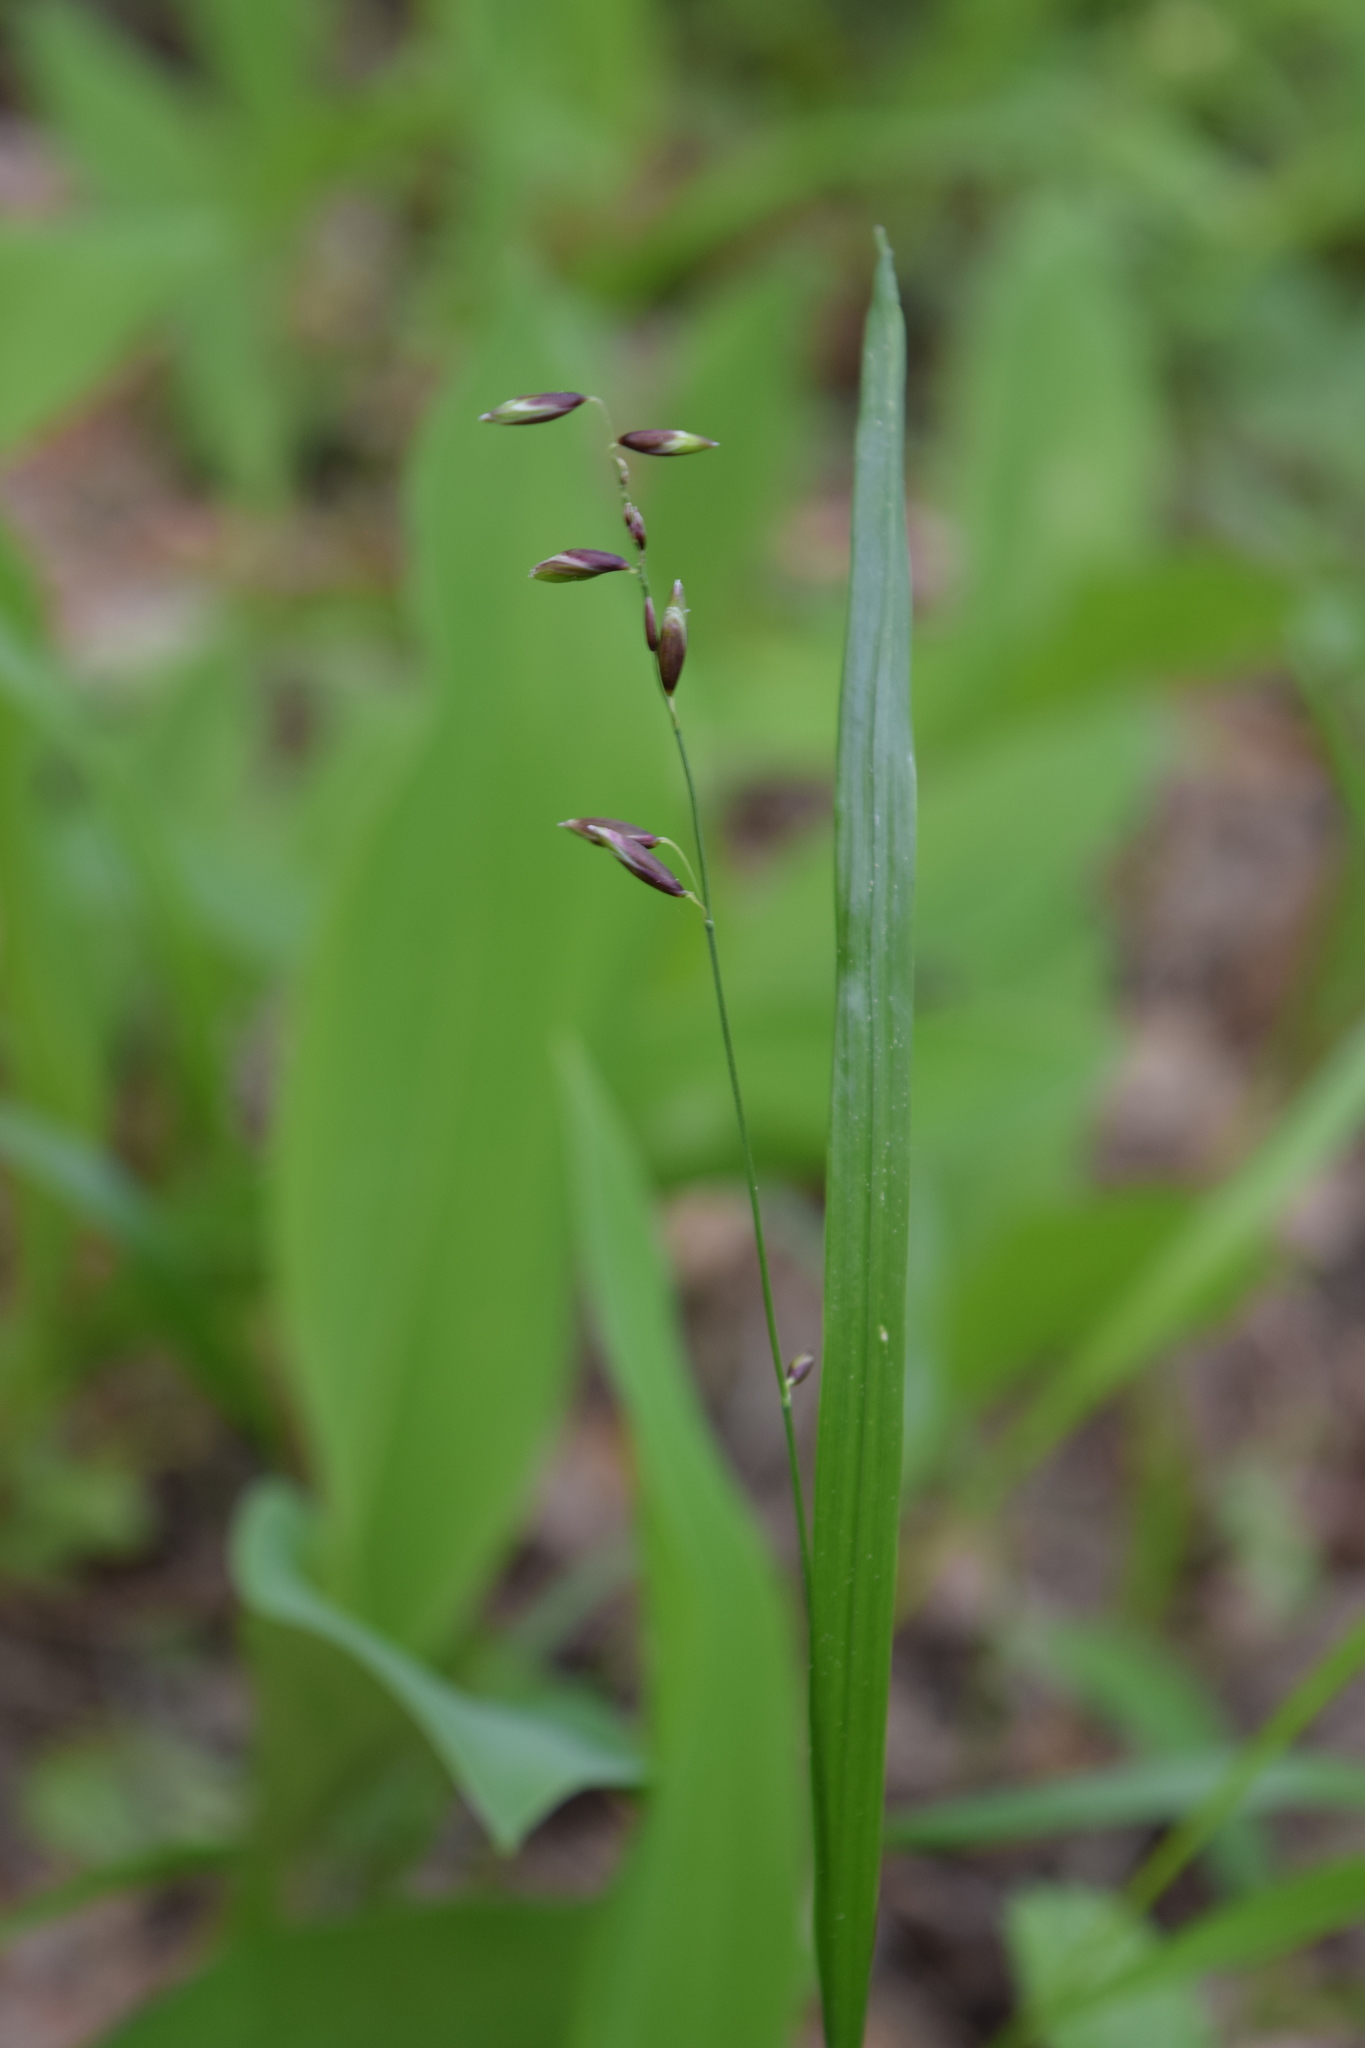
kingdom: Plantae
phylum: Tracheophyta
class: Liliopsida
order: Poales
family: Poaceae
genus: Melica
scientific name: Melica nutans
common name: Mountain melick
